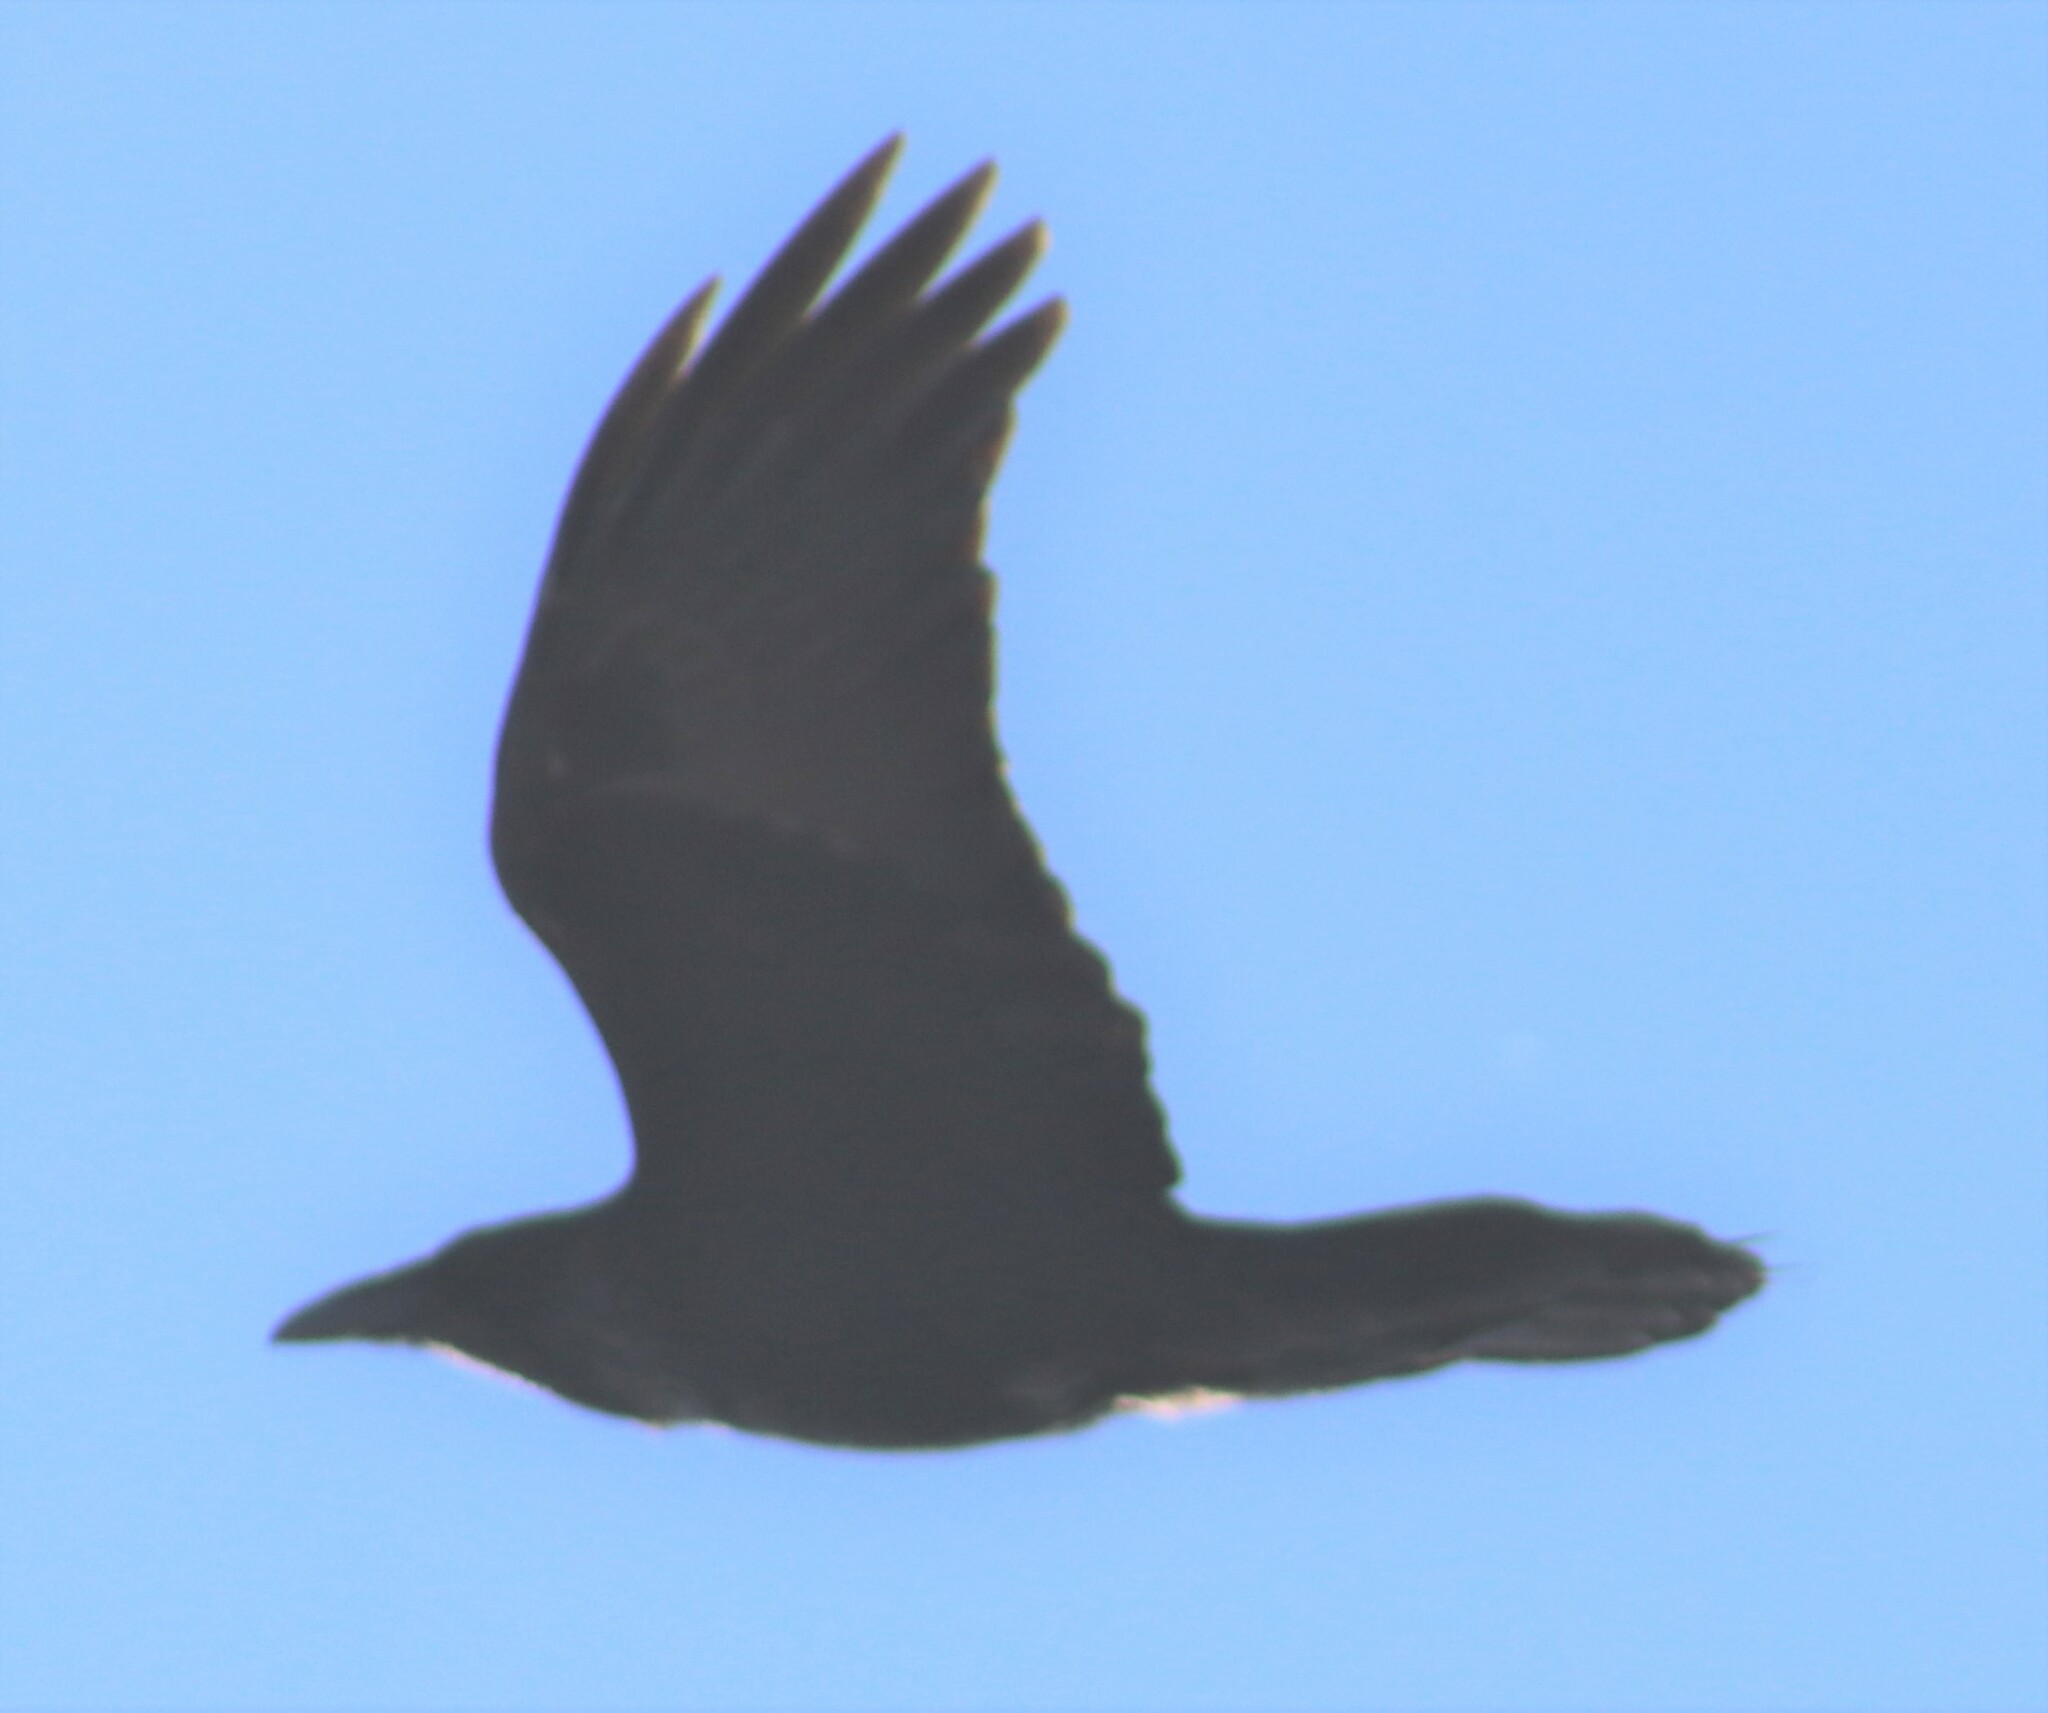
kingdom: Animalia
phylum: Chordata
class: Aves
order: Passeriformes
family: Corvidae
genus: Corvus
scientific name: Corvus corax
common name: Common raven
